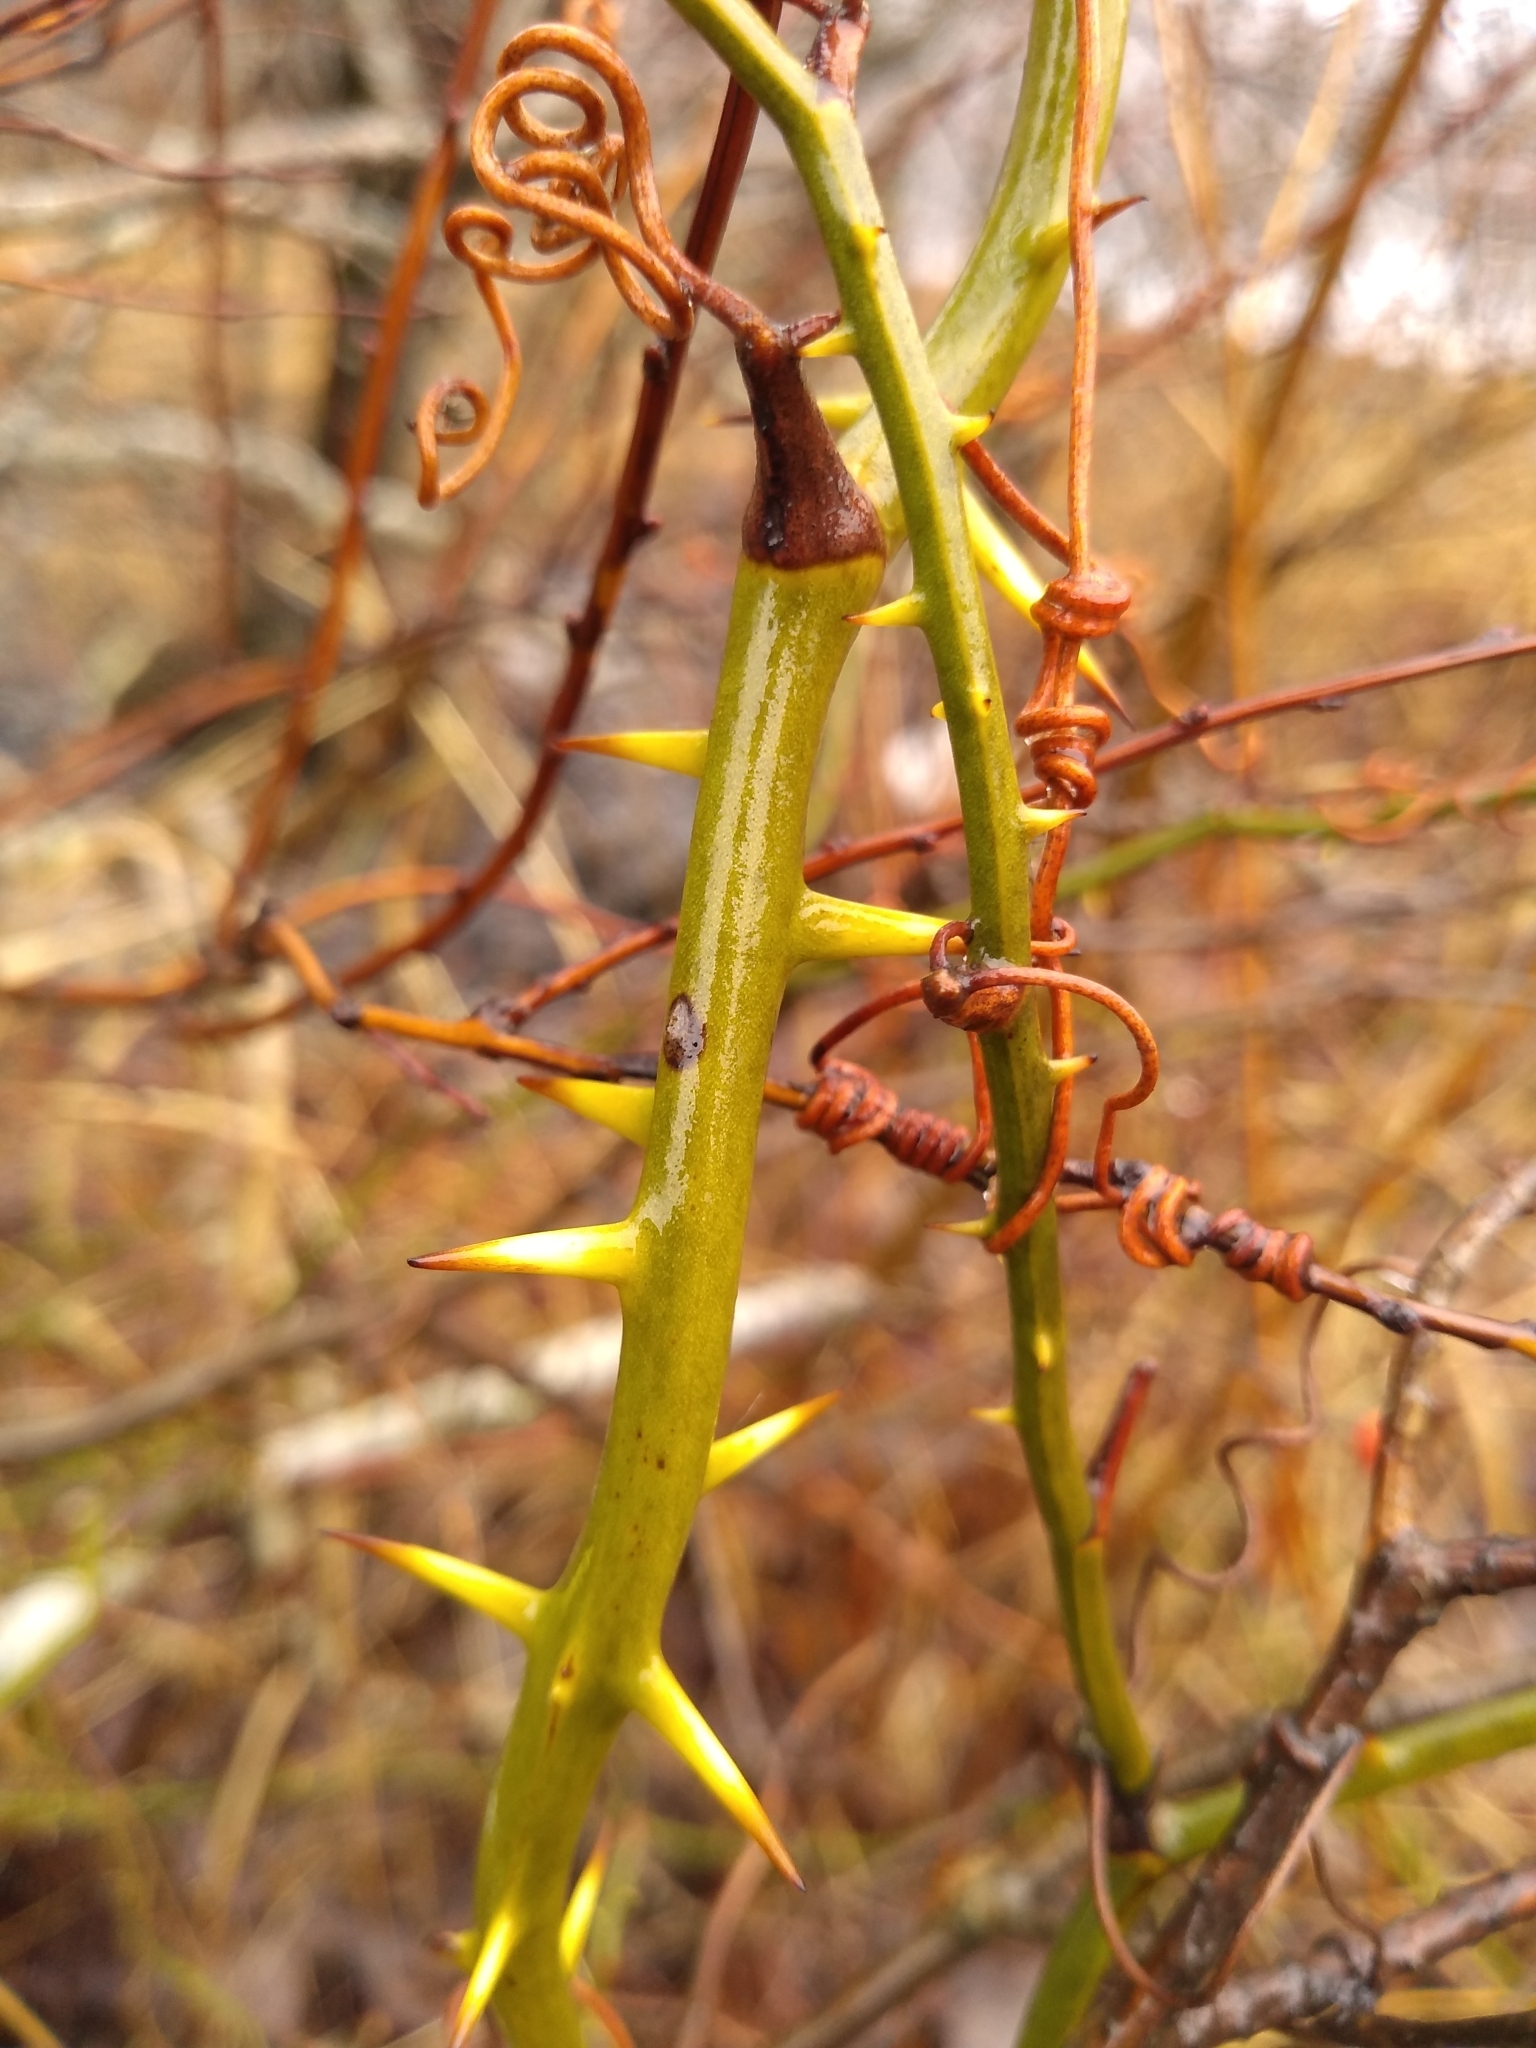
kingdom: Plantae
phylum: Tracheophyta
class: Liliopsida
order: Liliales
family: Smilacaceae
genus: Smilax
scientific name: Smilax rotundifolia
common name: Bullbriar
